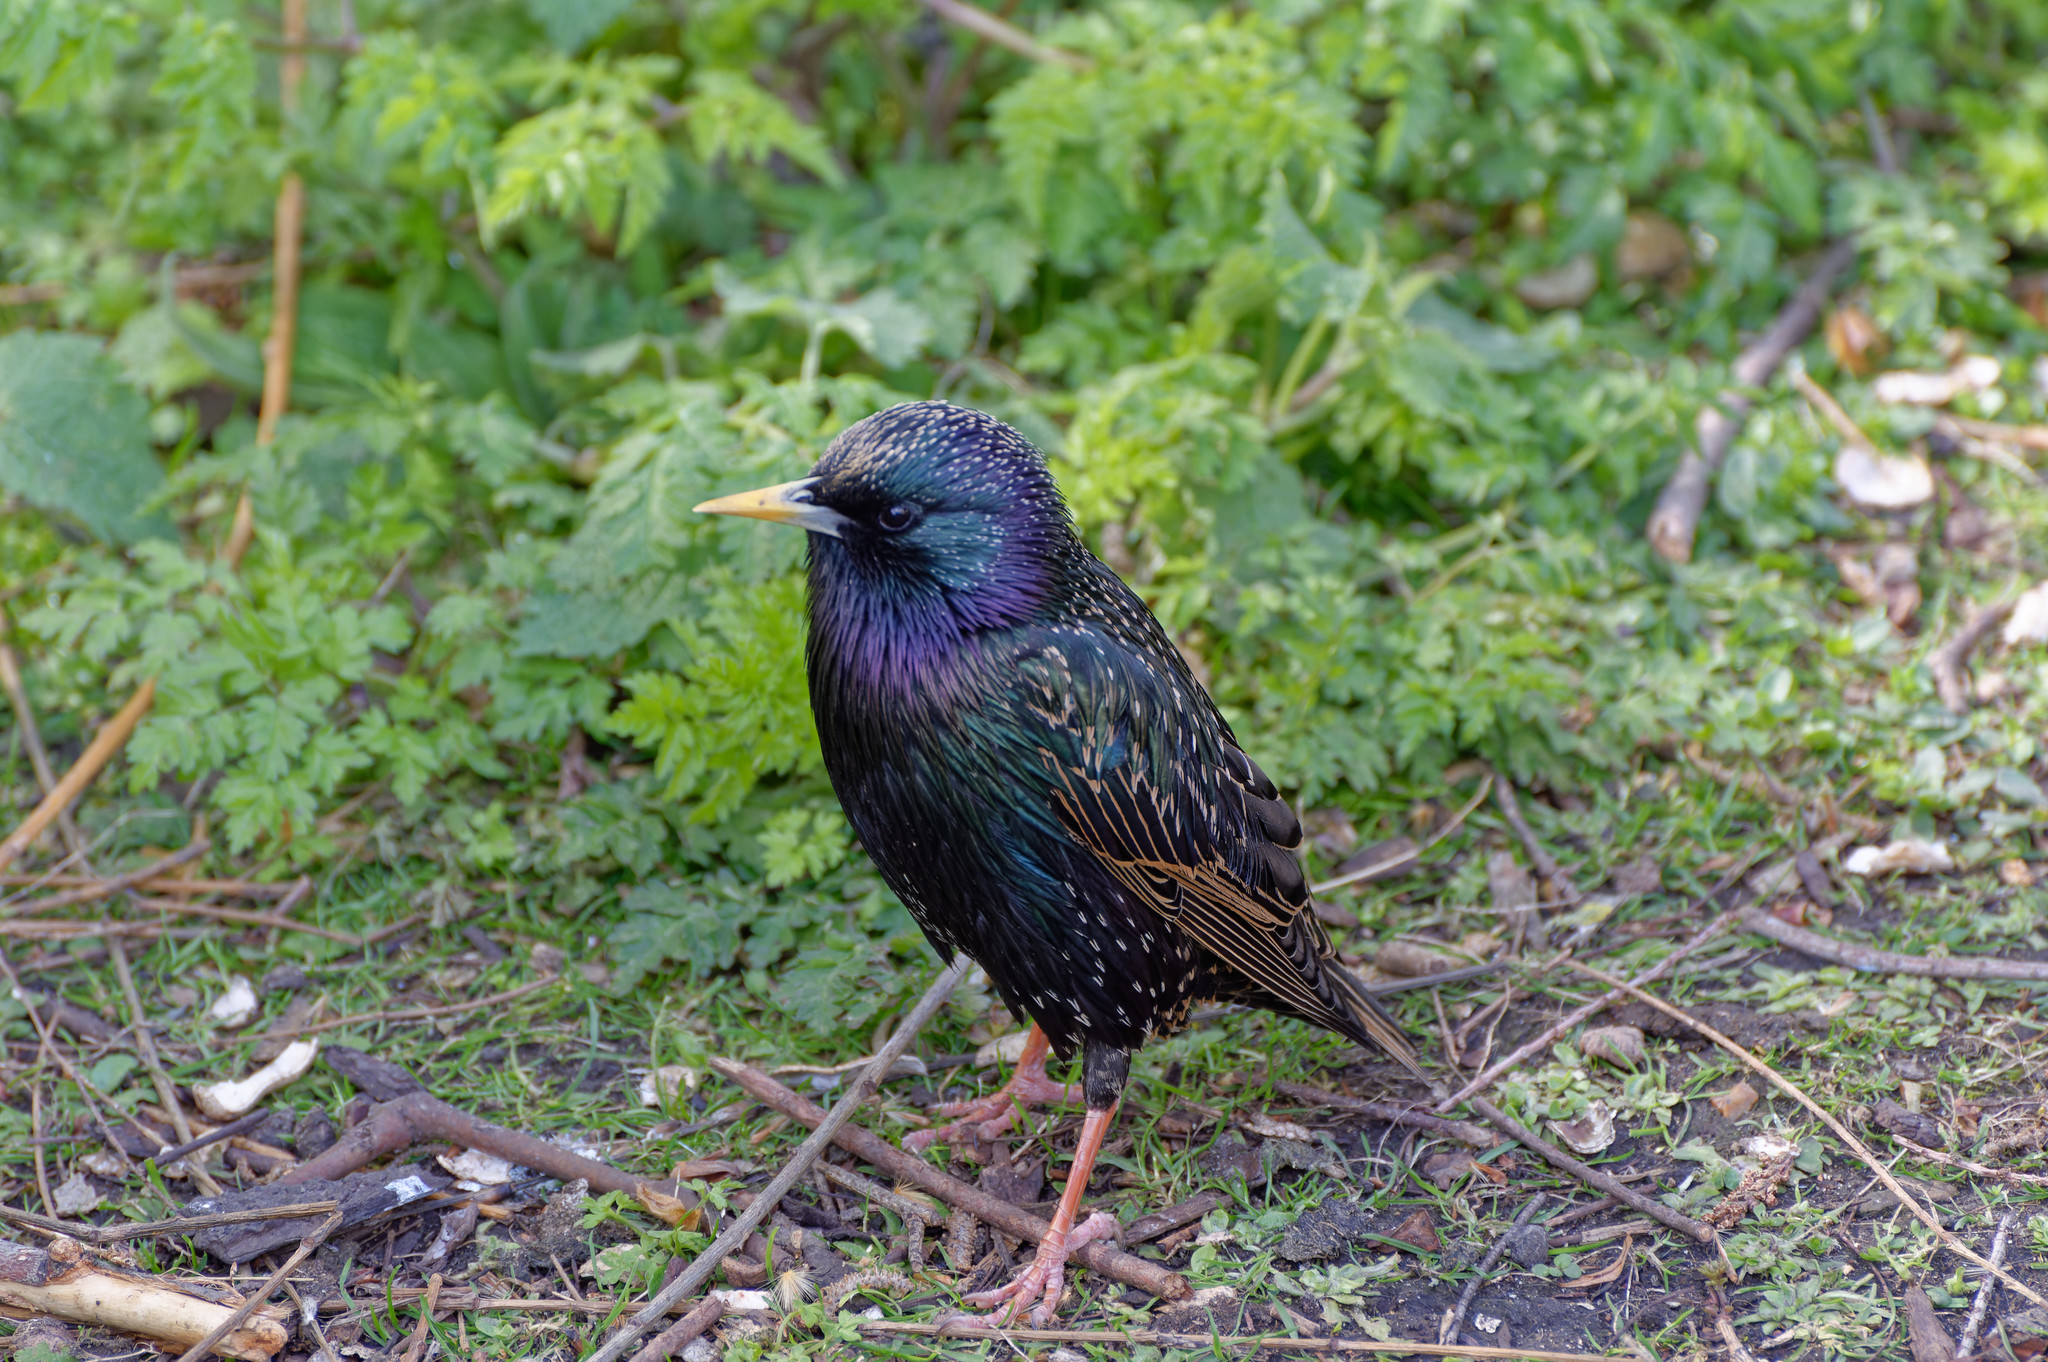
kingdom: Animalia
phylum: Chordata
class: Aves
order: Passeriformes
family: Sturnidae
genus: Sturnus
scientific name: Sturnus vulgaris
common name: Common starling
